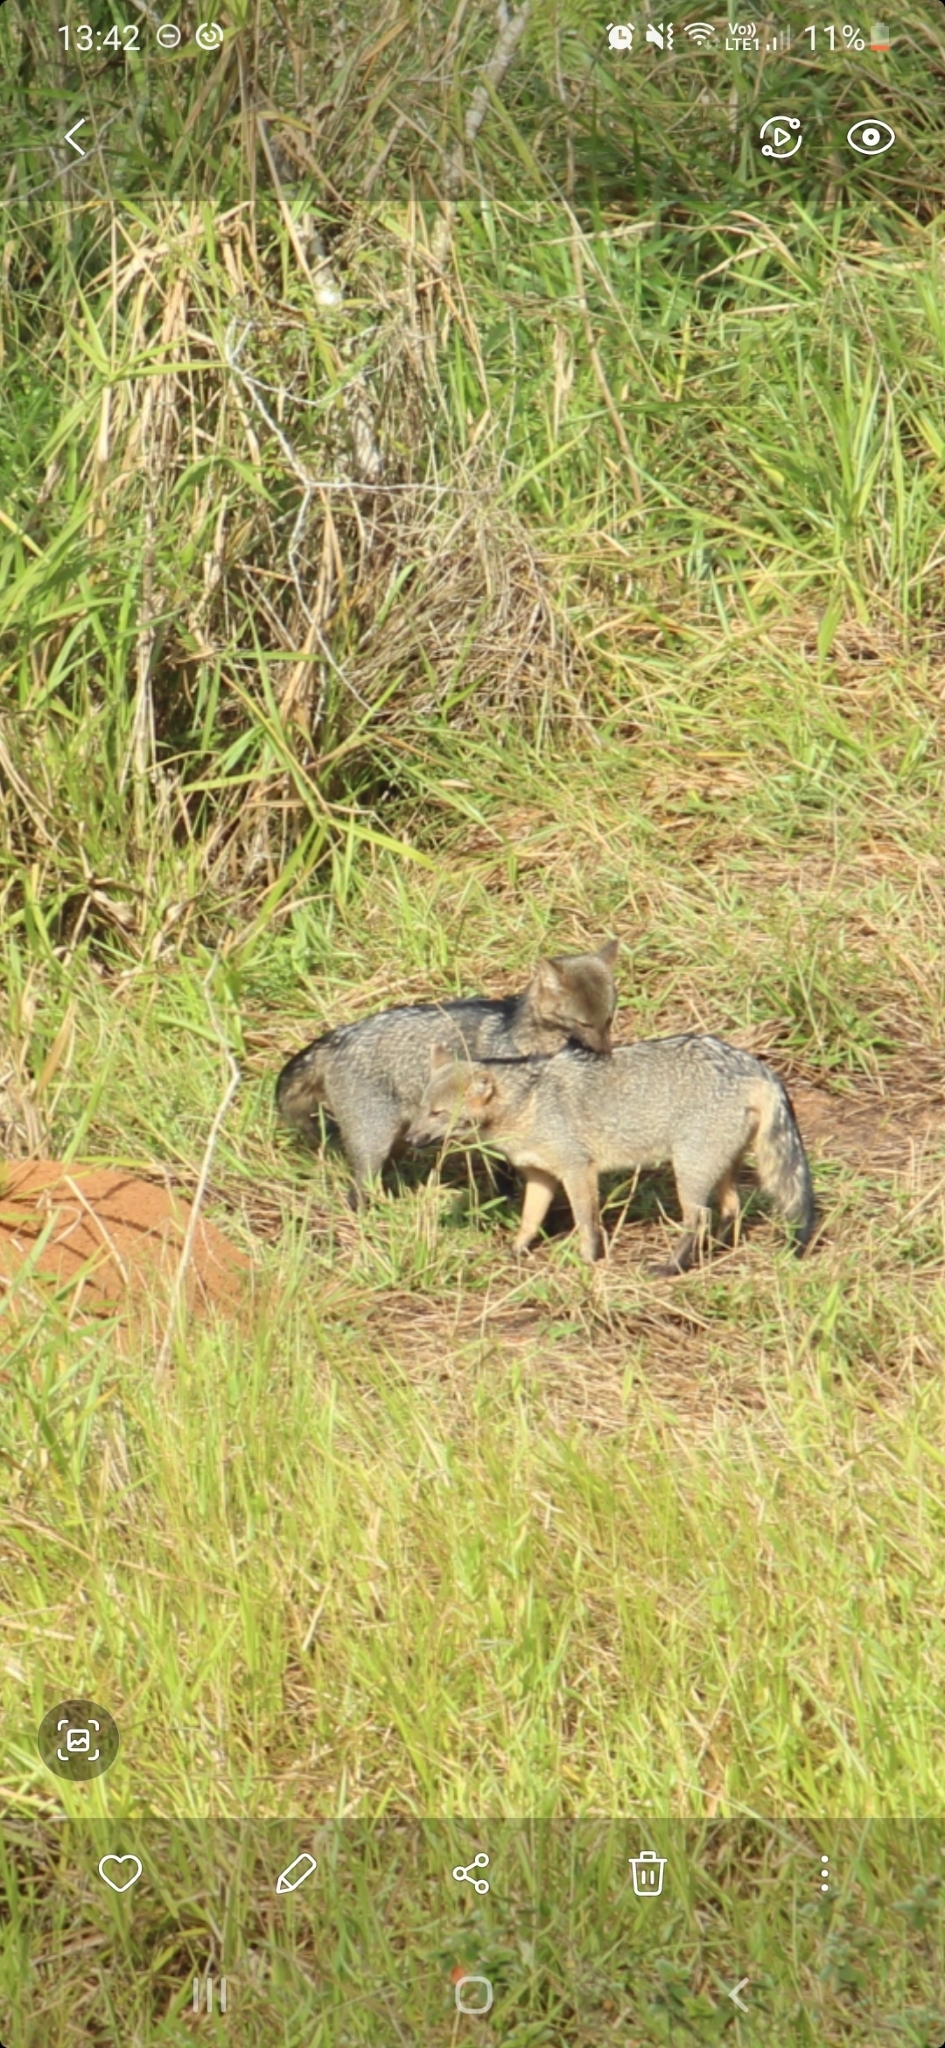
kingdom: Animalia
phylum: Chordata
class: Mammalia
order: Carnivora
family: Canidae
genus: Cerdocyon
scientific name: Cerdocyon thous
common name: Crab-eating fox
